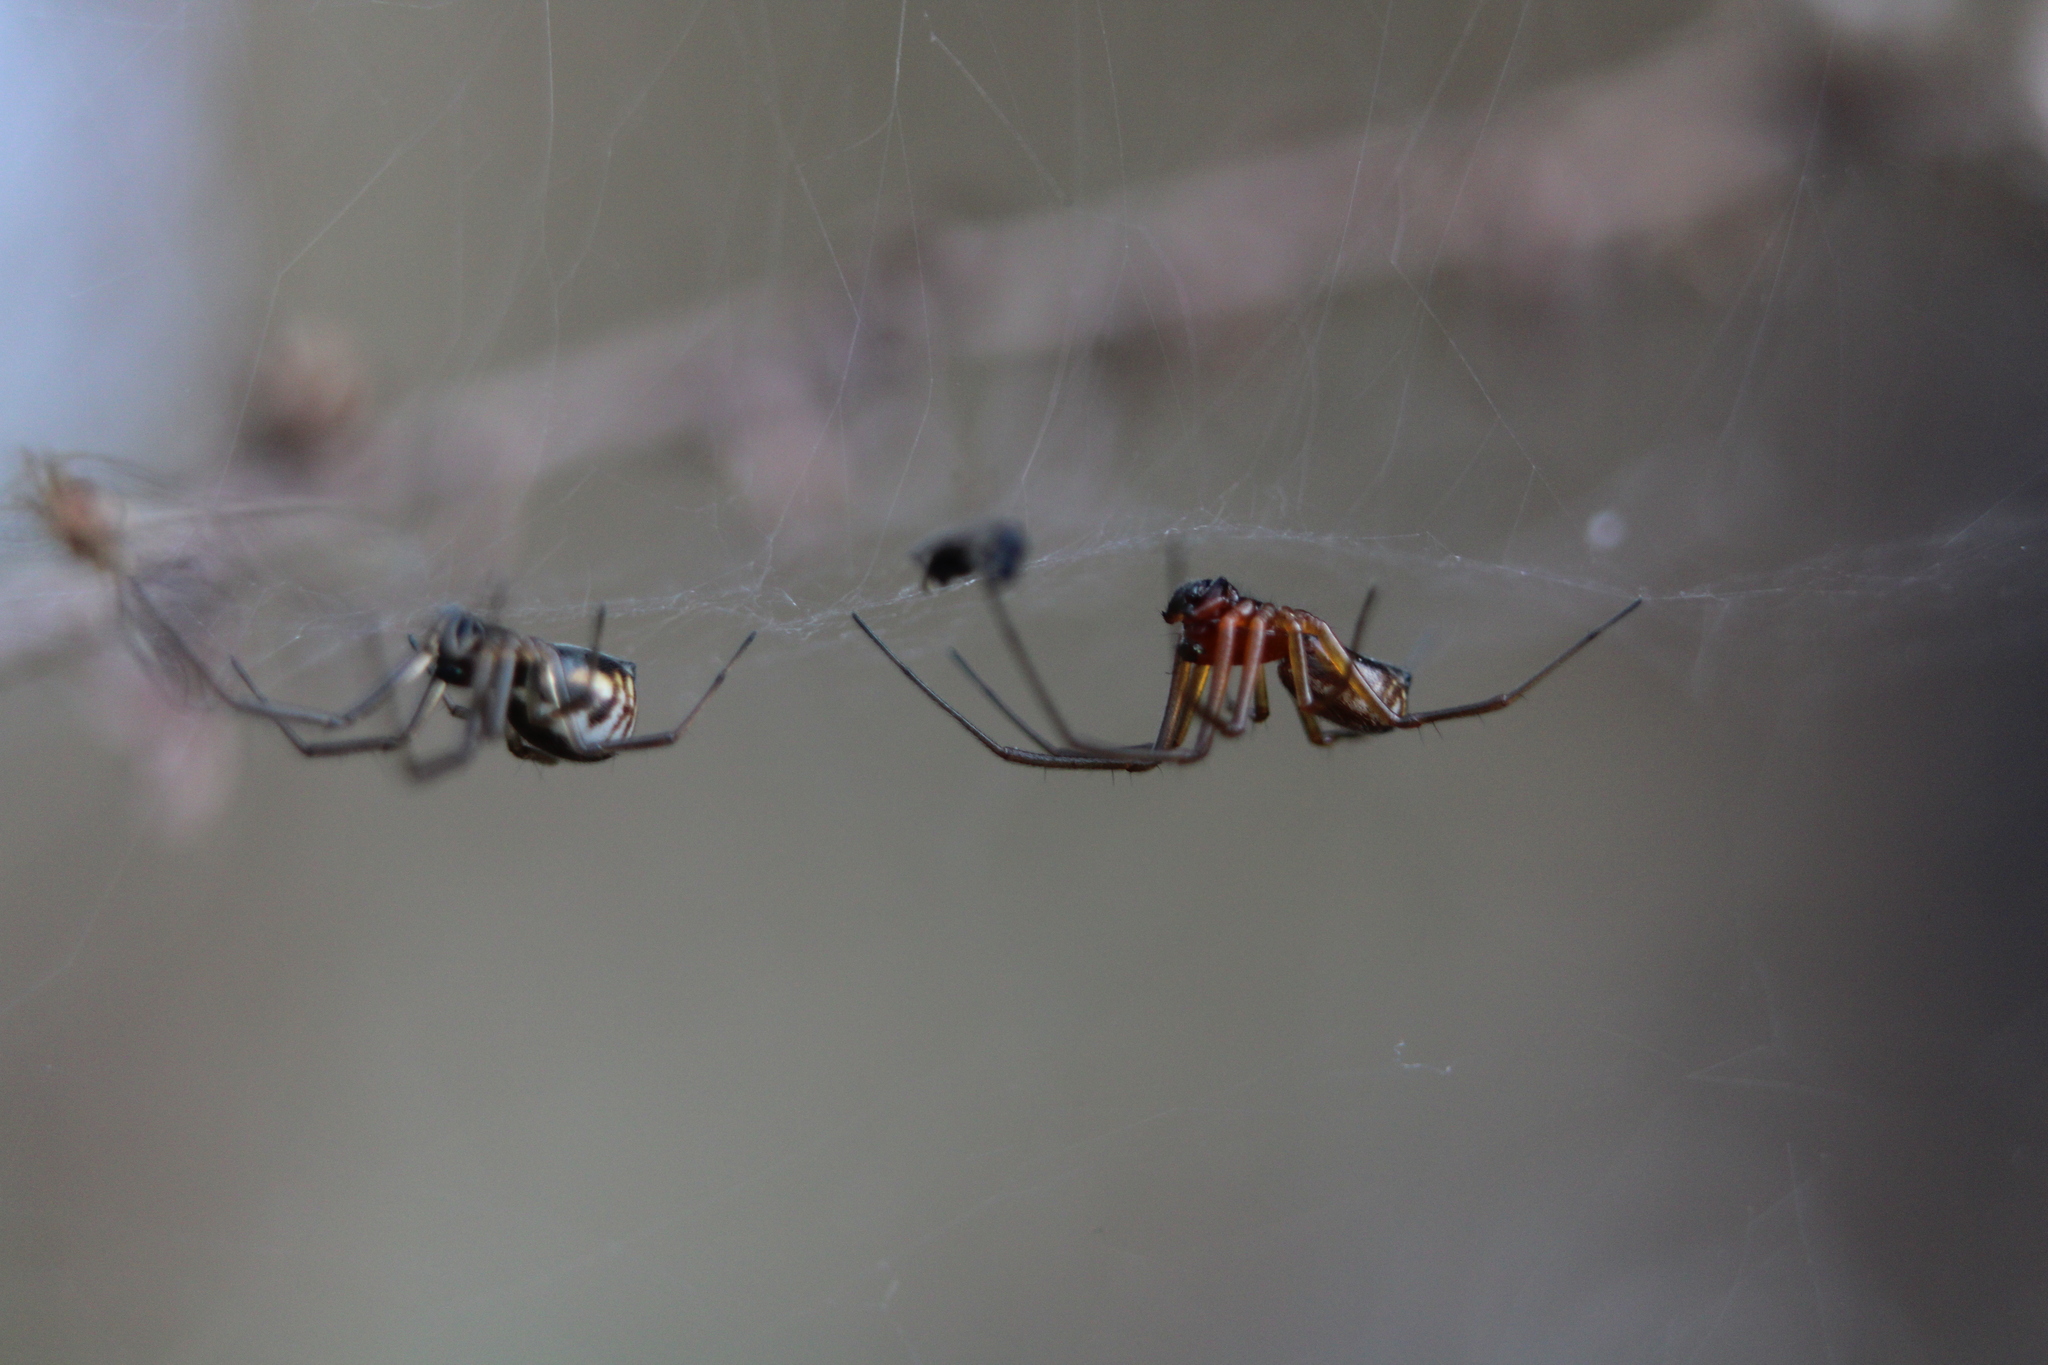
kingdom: Animalia
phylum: Arthropoda
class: Arachnida
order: Araneae
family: Linyphiidae
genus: Frontinella
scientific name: Frontinella pyramitela
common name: Bowl-and-doily spider
